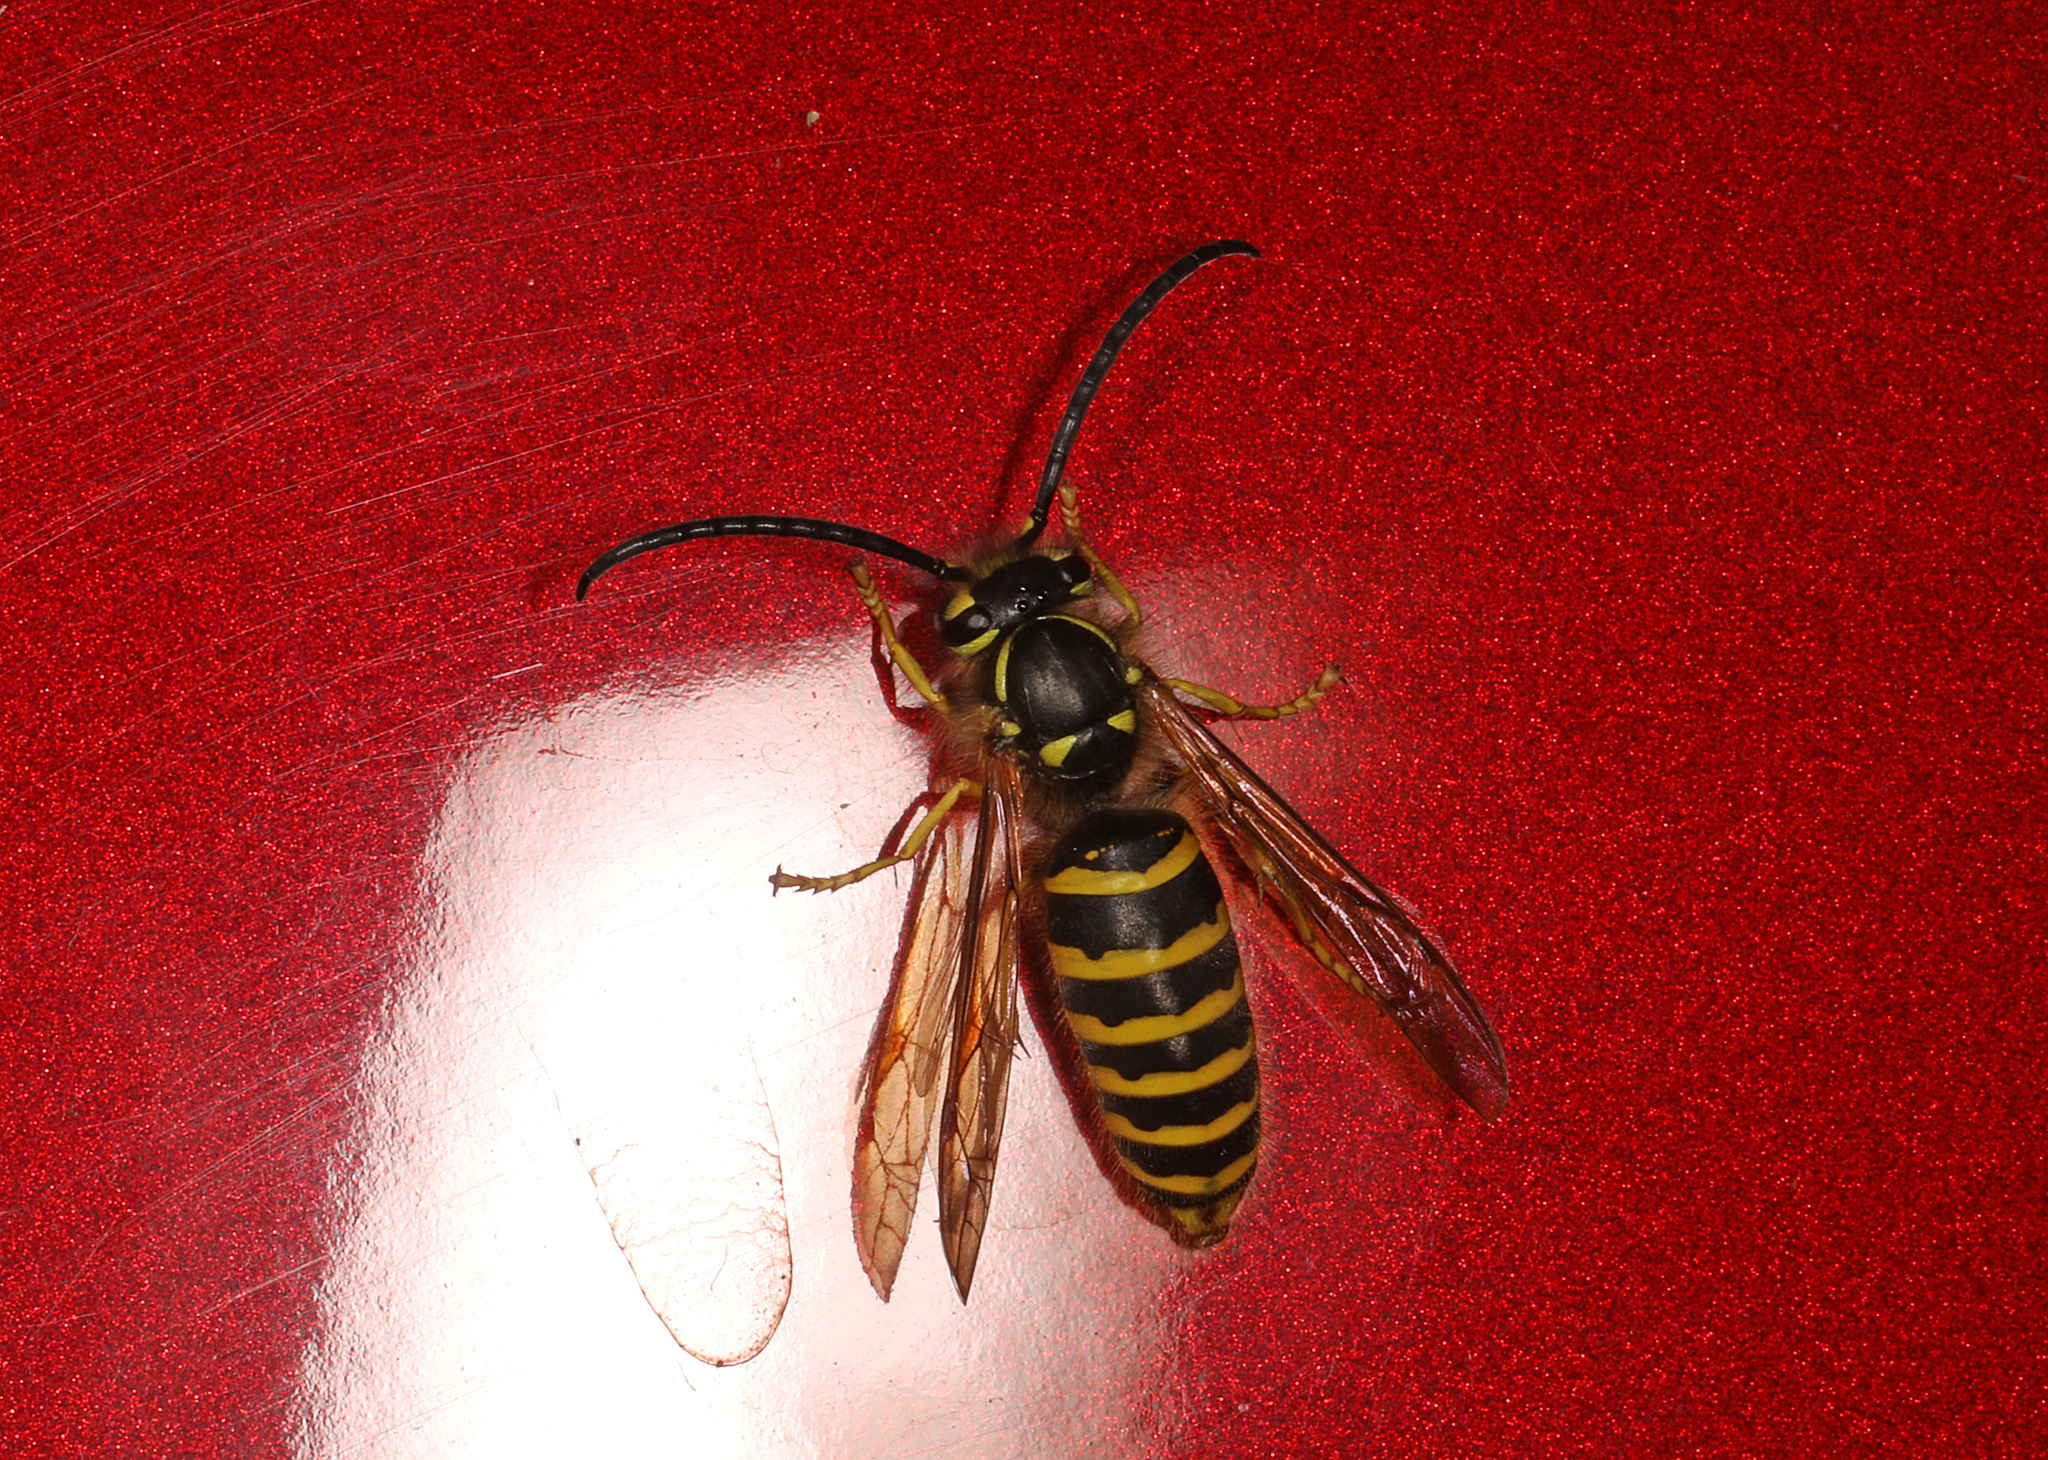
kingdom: Animalia
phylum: Arthropoda
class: Insecta
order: Hymenoptera
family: Vespidae
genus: Vespula
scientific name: Vespula maculifrons
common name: Eastern yellowjacket
